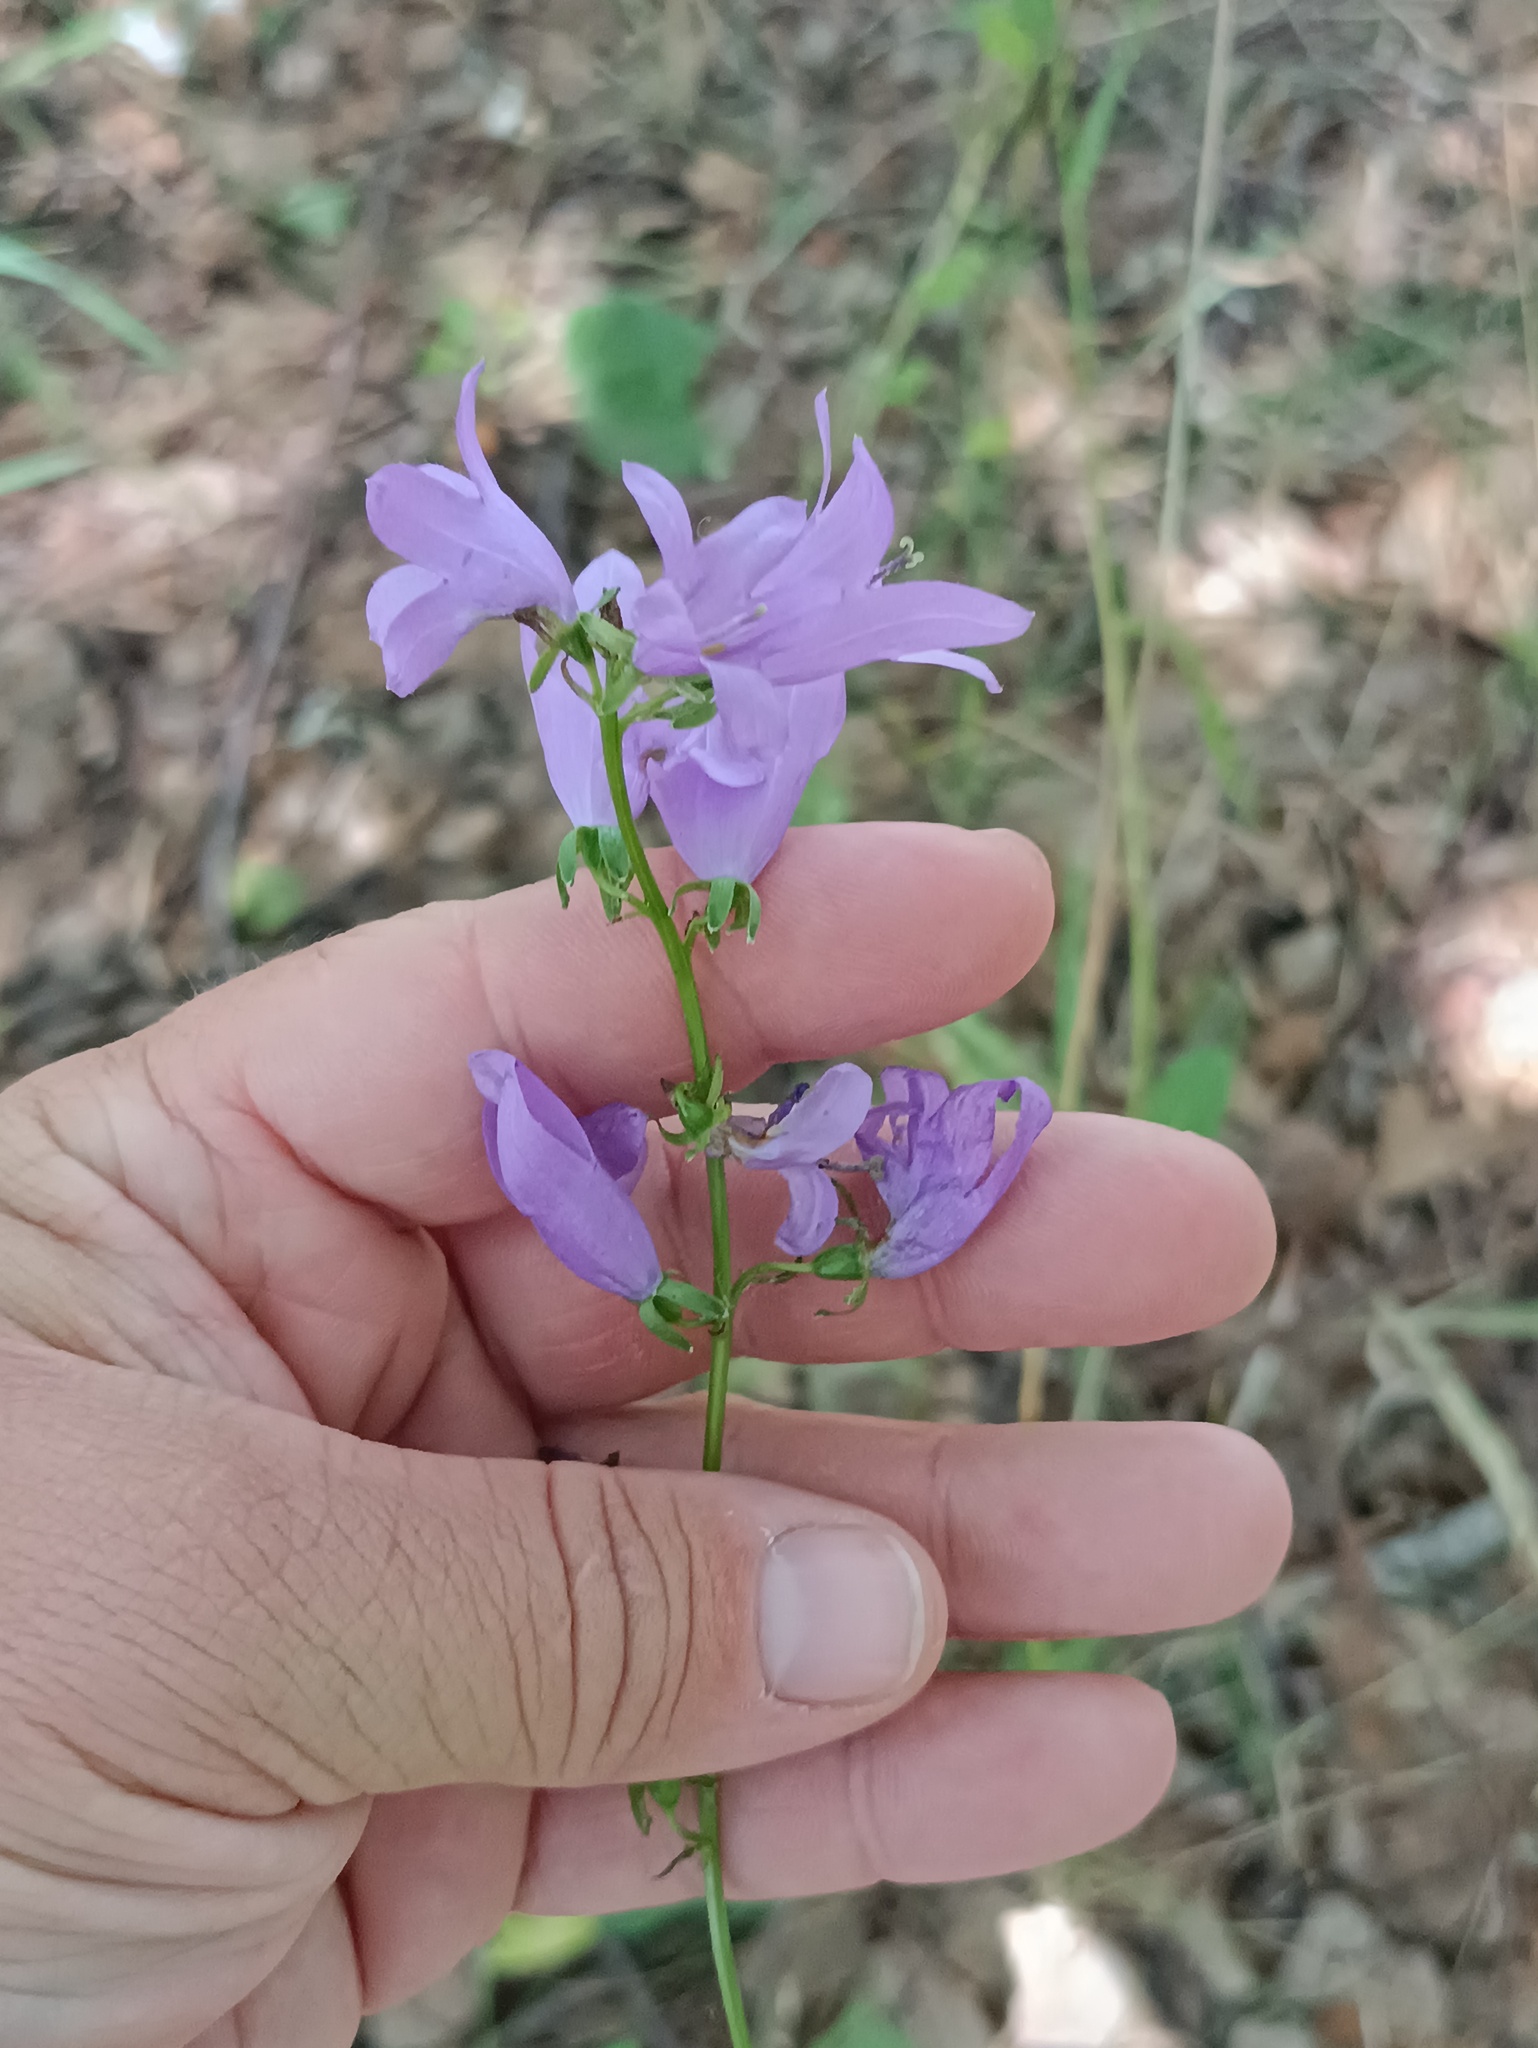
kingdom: Plantae
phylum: Tracheophyta
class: Magnoliopsida
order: Asterales
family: Campanulaceae
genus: Campanula
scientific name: Campanula rapunculoides
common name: Creeping bellflower
